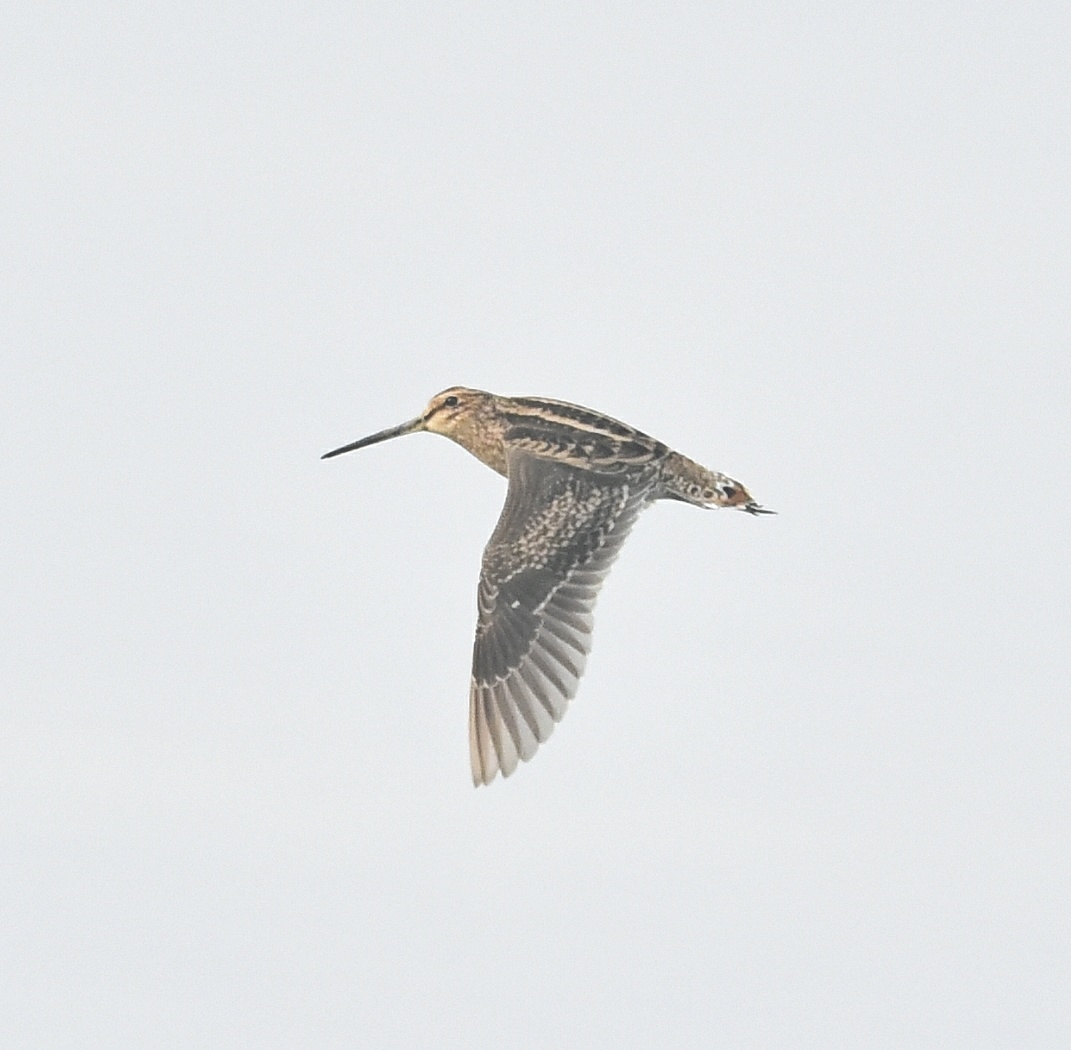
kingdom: Animalia
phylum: Chordata
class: Aves
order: Charadriiformes
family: Scolopacidae
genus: Gallinago
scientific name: Gallinago gallinago
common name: Common snipe
